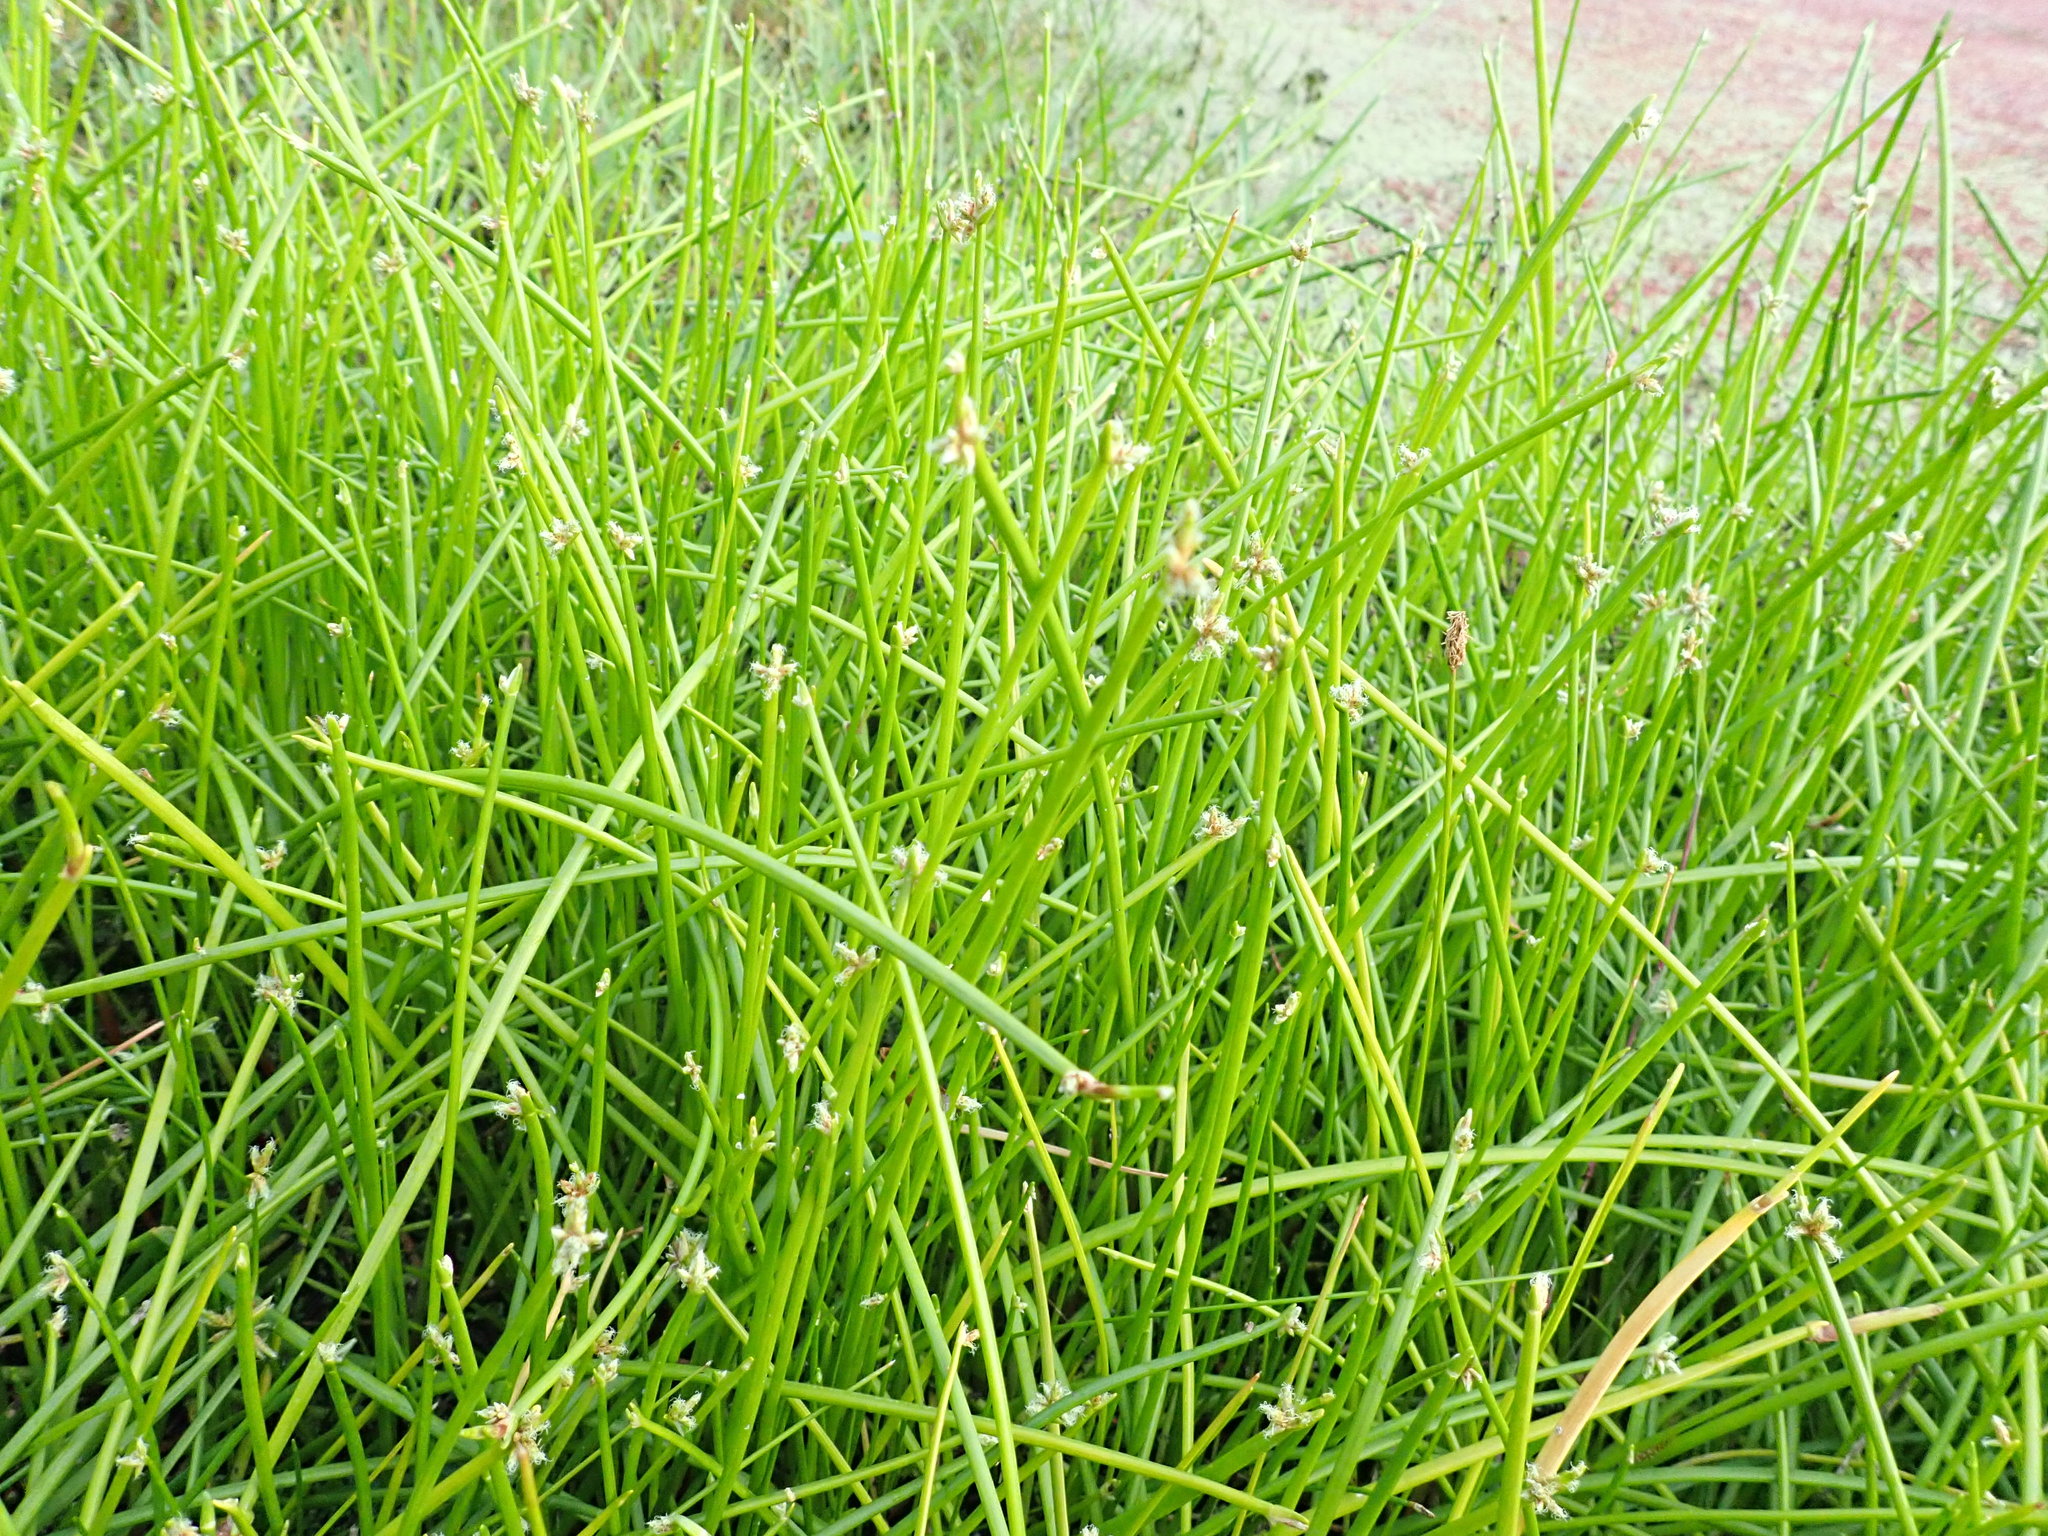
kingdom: Plantae
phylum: Tracheophyta
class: Liliopsida
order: Poales
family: Cyperaceae
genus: Isolepis
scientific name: Isolepis prolifera
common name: Proliferating bulrush
